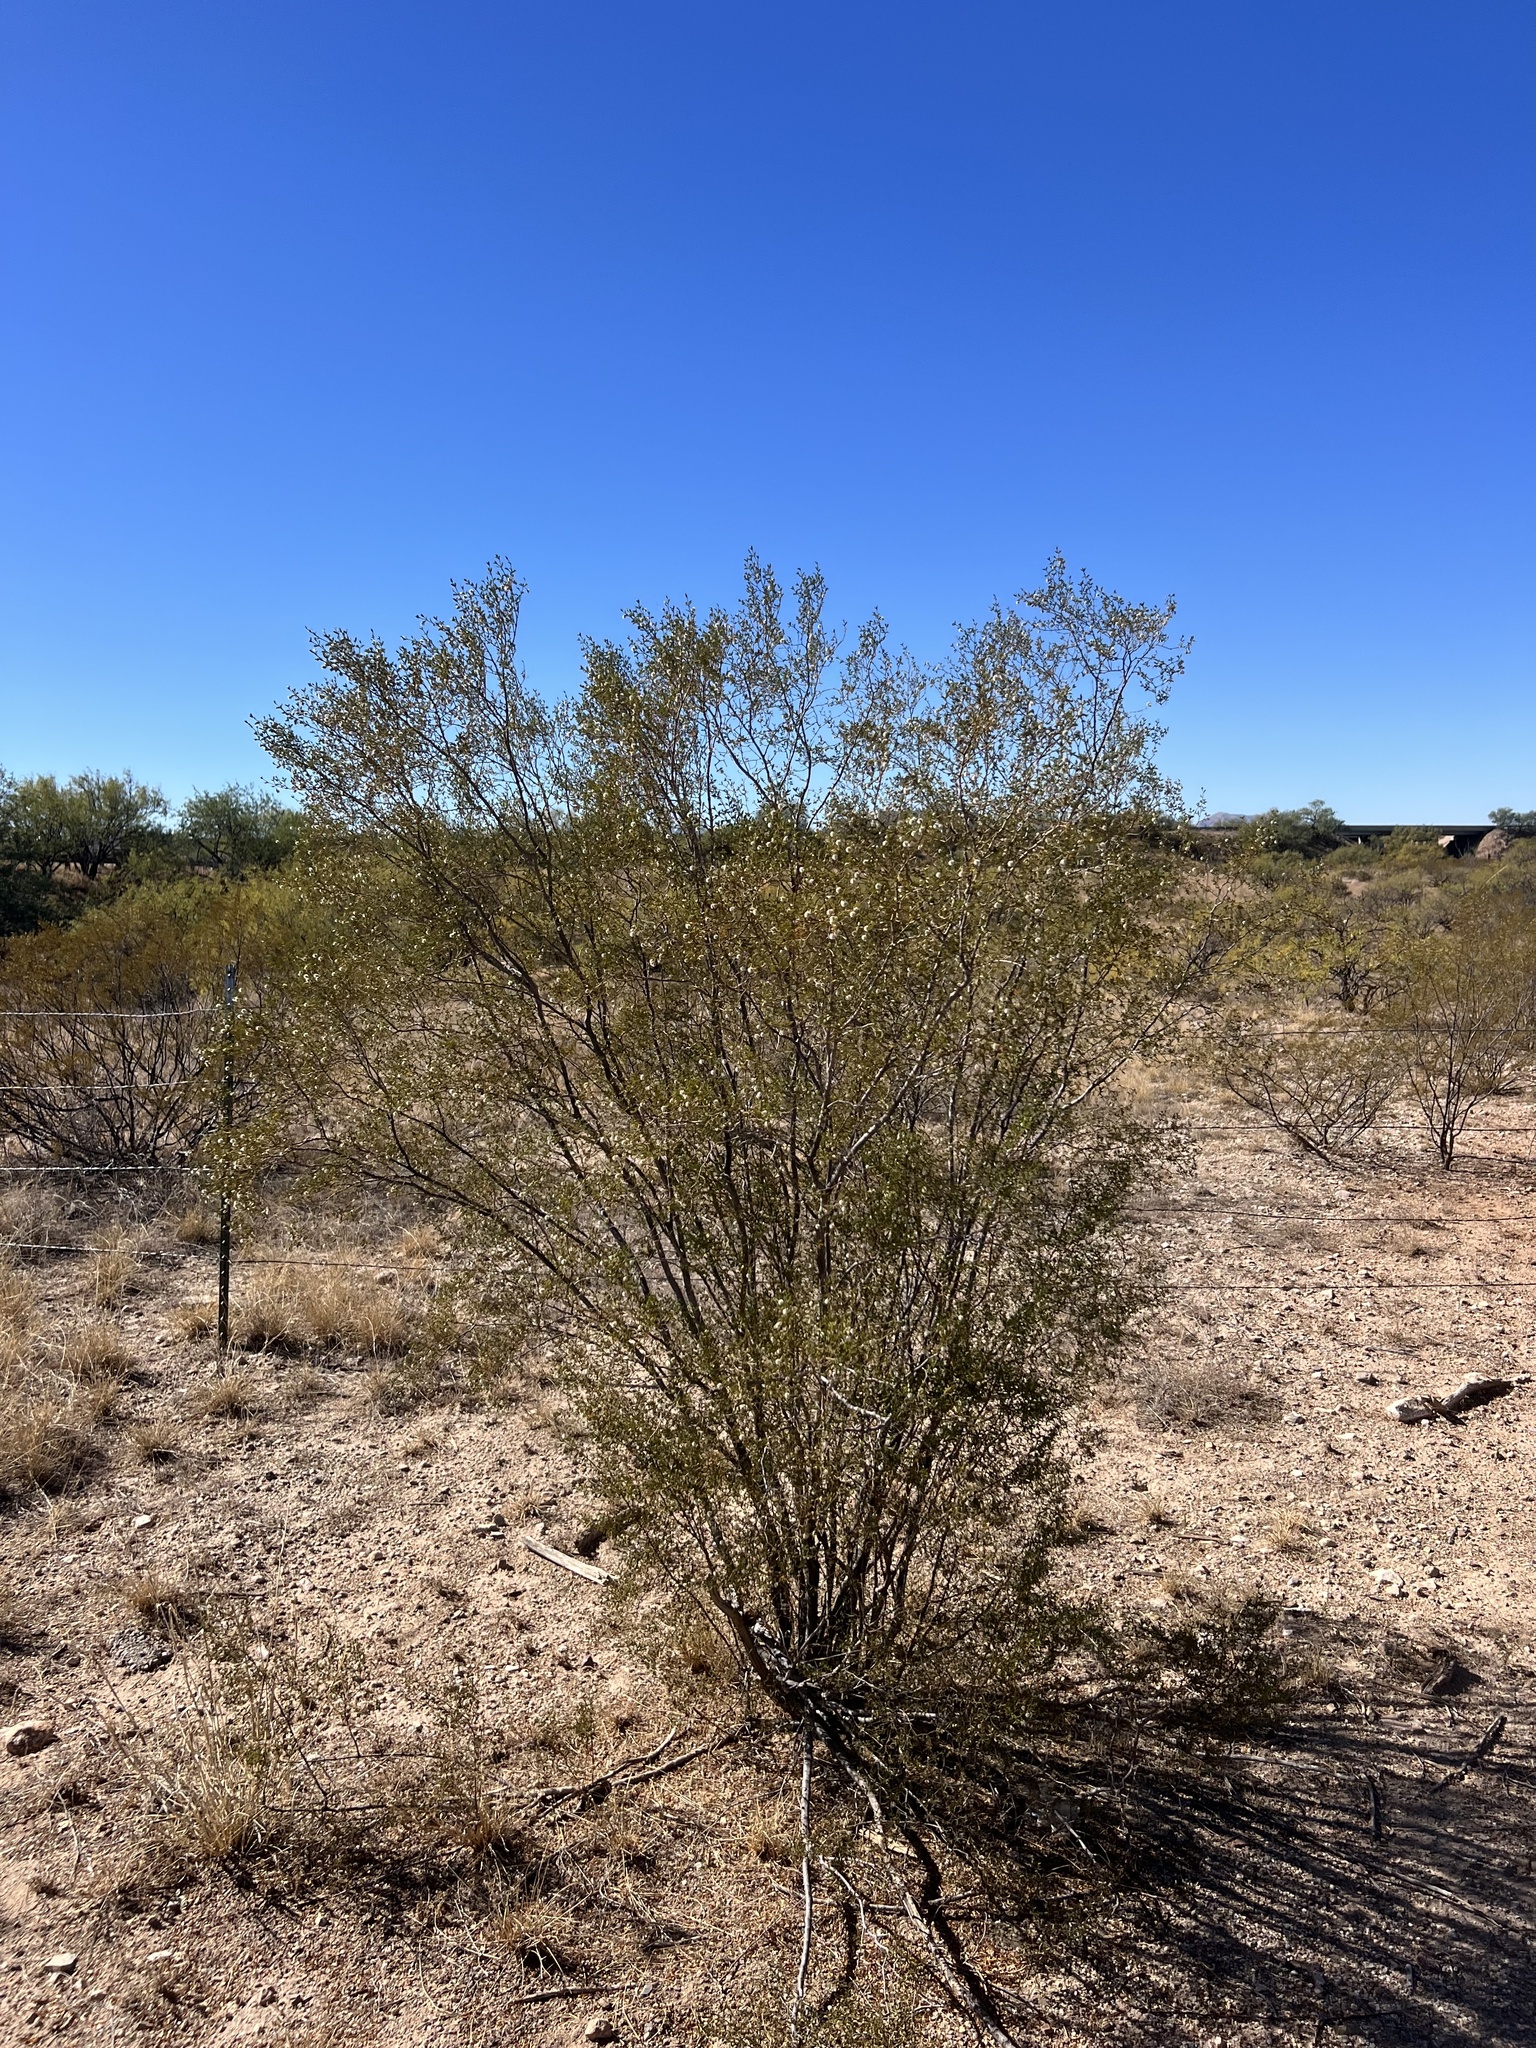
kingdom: Plantae
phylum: Tracheophyta
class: Magnoliopsida
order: Zygophyllales
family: Zygophyllaceae
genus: Larrea
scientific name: Larrea tridentata
